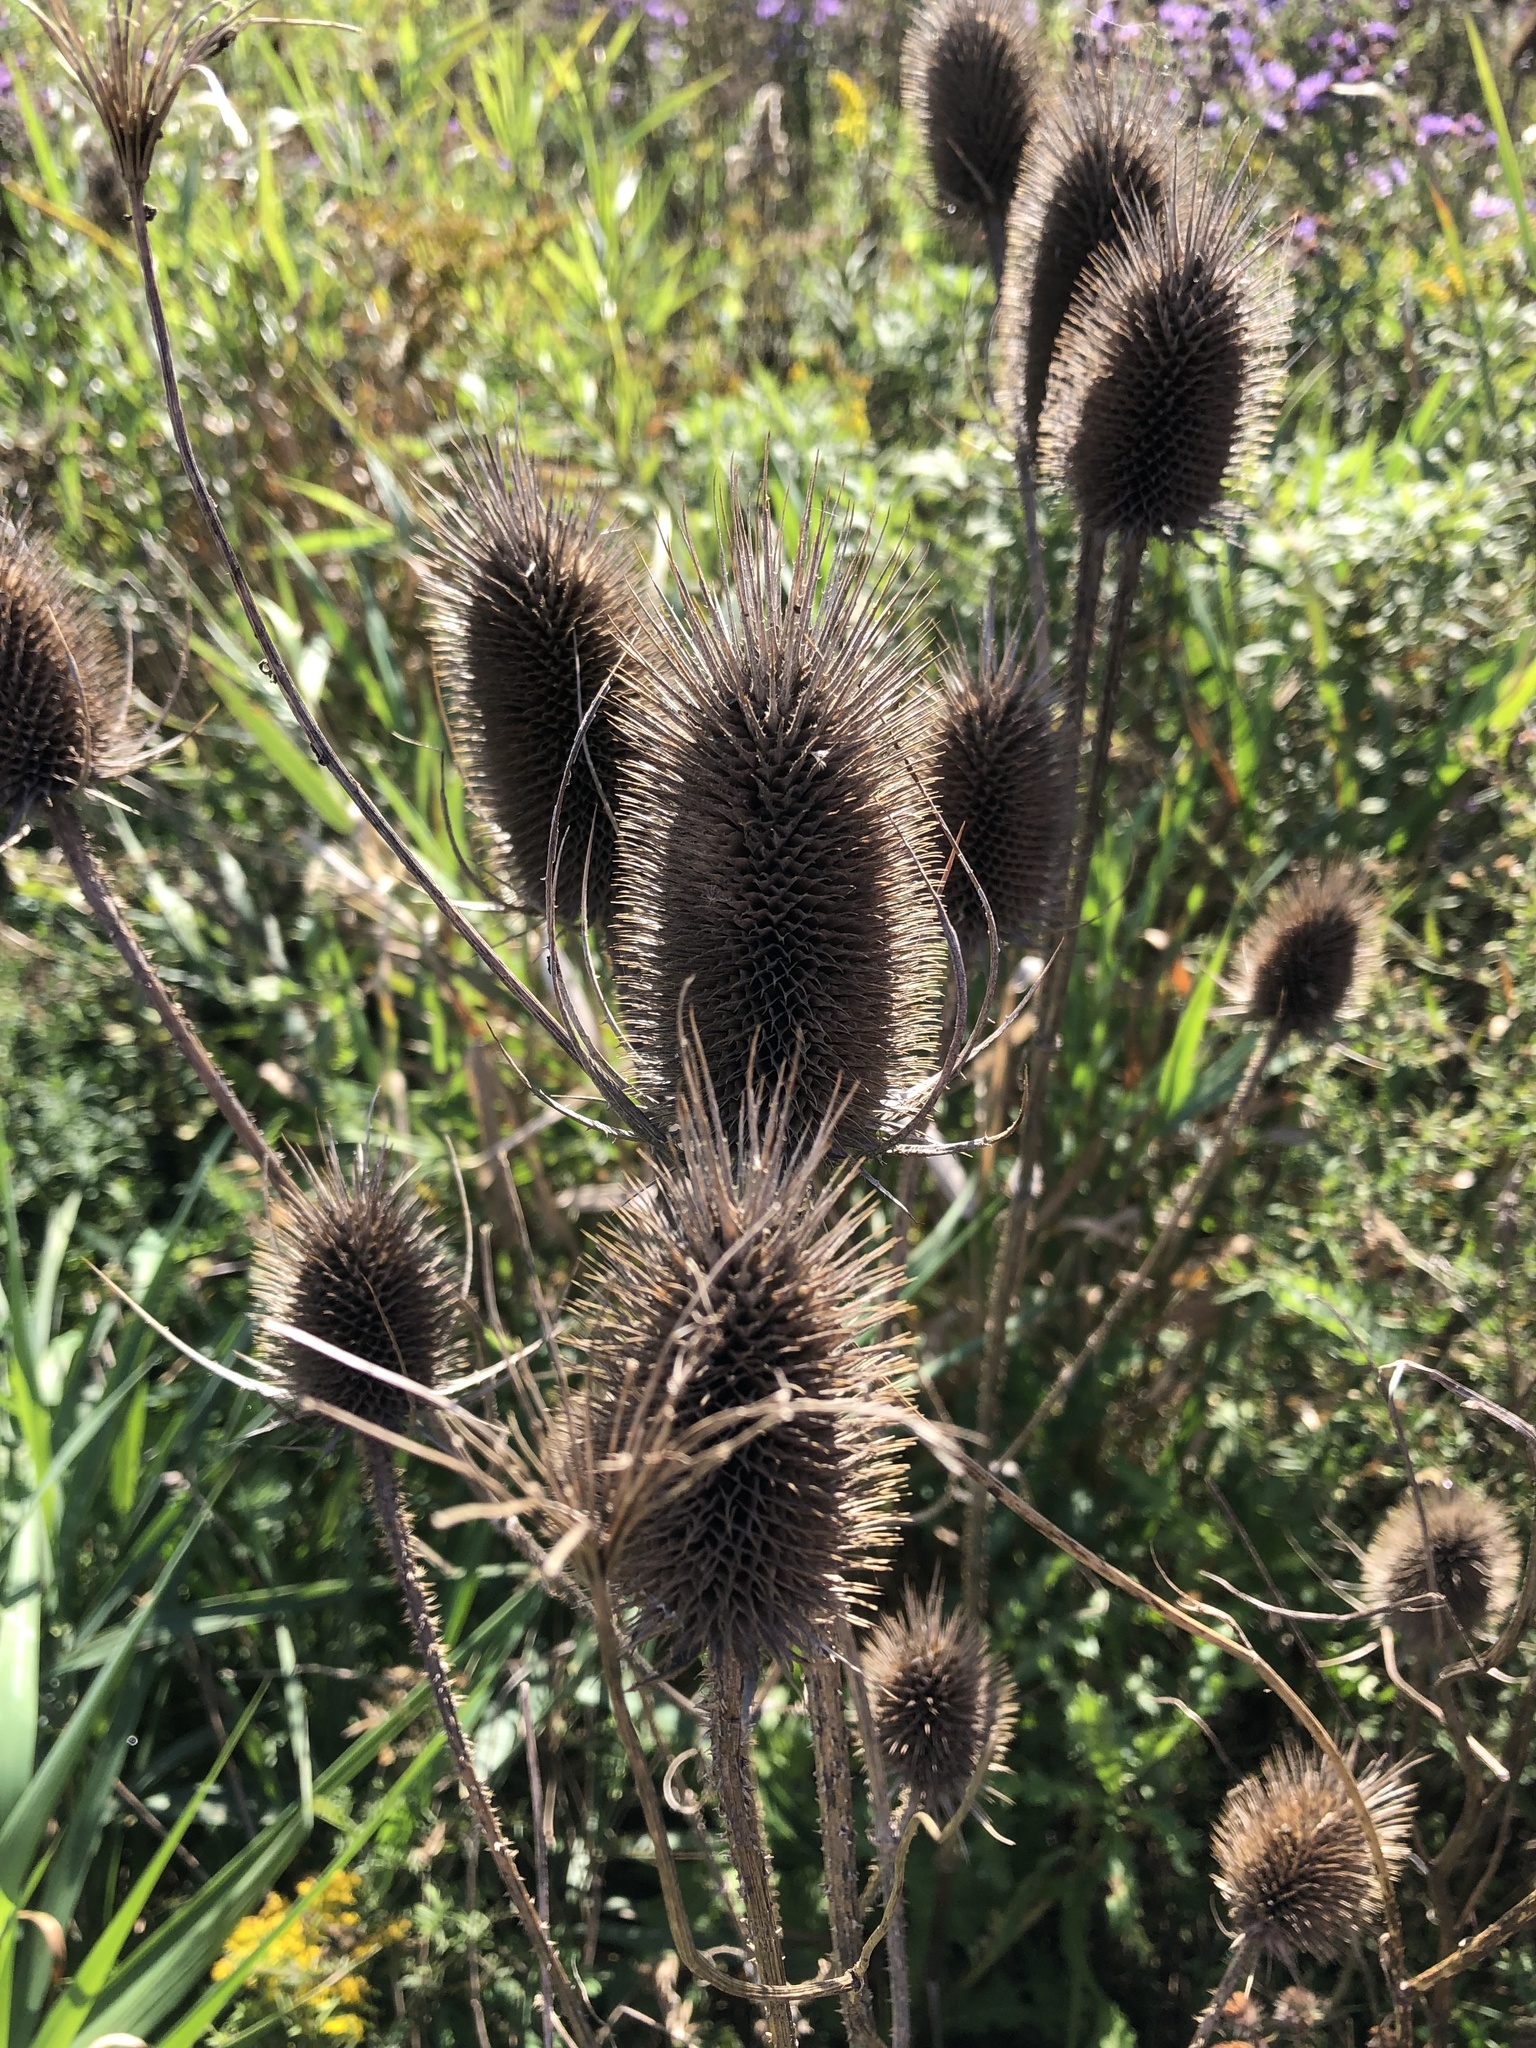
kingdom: Plantae
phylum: Tracheophyta
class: Magnoliopsida
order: Dipsacales
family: Caprifoliaceae
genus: Dipsacus
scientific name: Dipsacus fullonum
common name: Teasel
